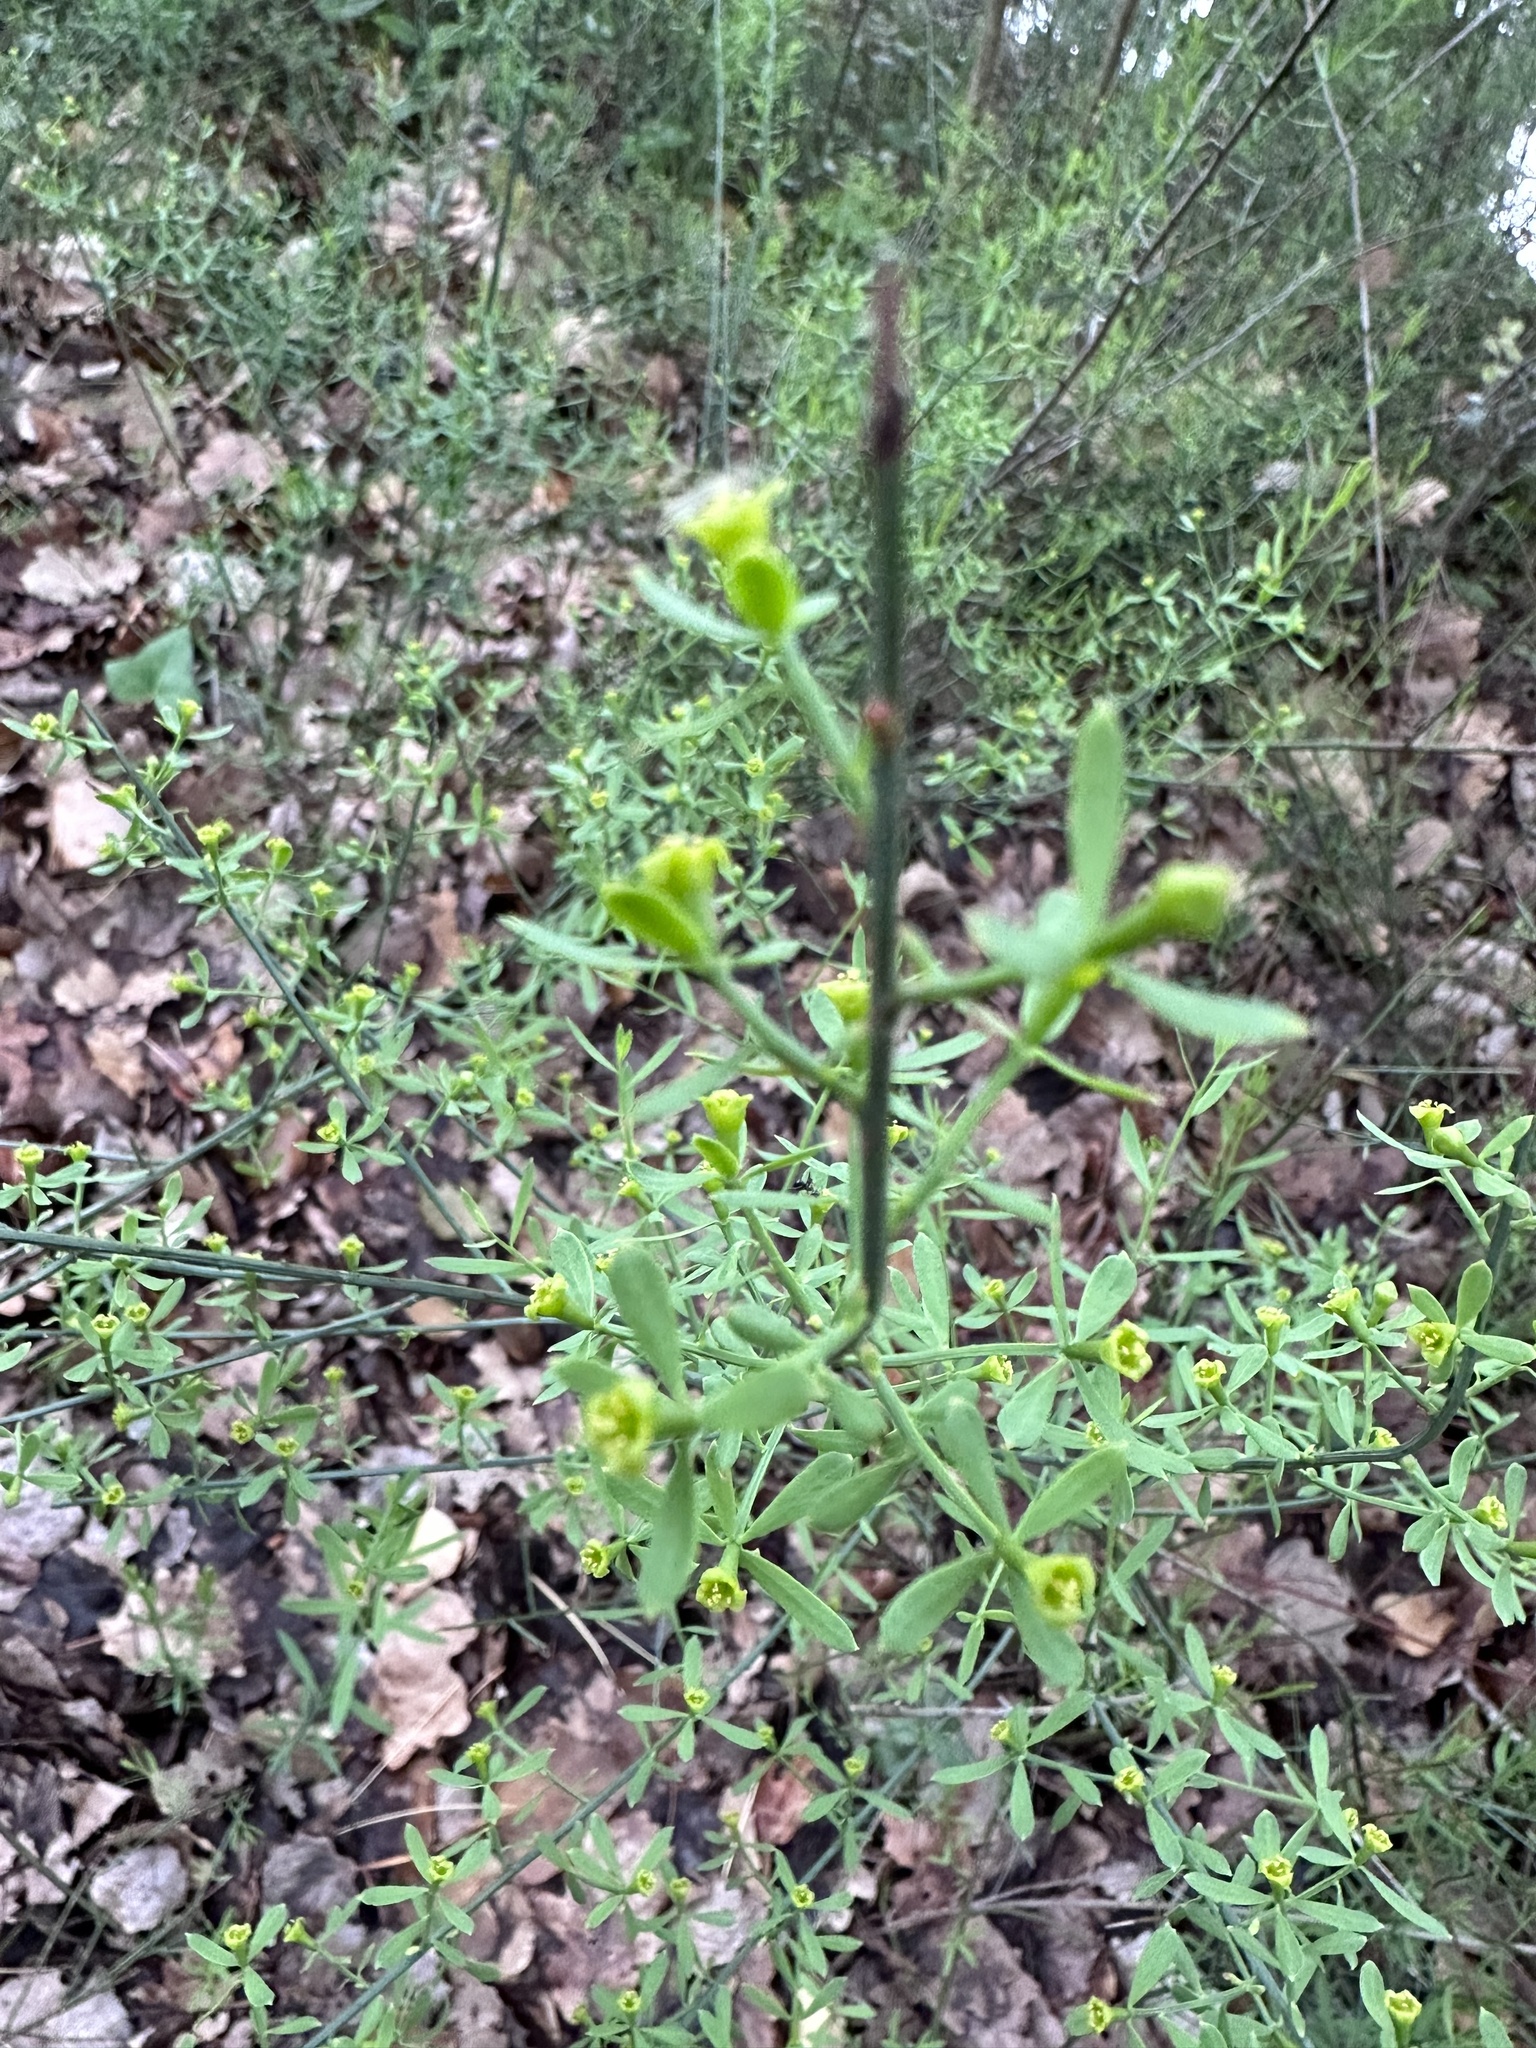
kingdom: Plantae
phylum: Tracheophyta
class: Magnoliopsida
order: Santalales
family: Santalaceae
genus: Osyris
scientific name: Osyris alba
